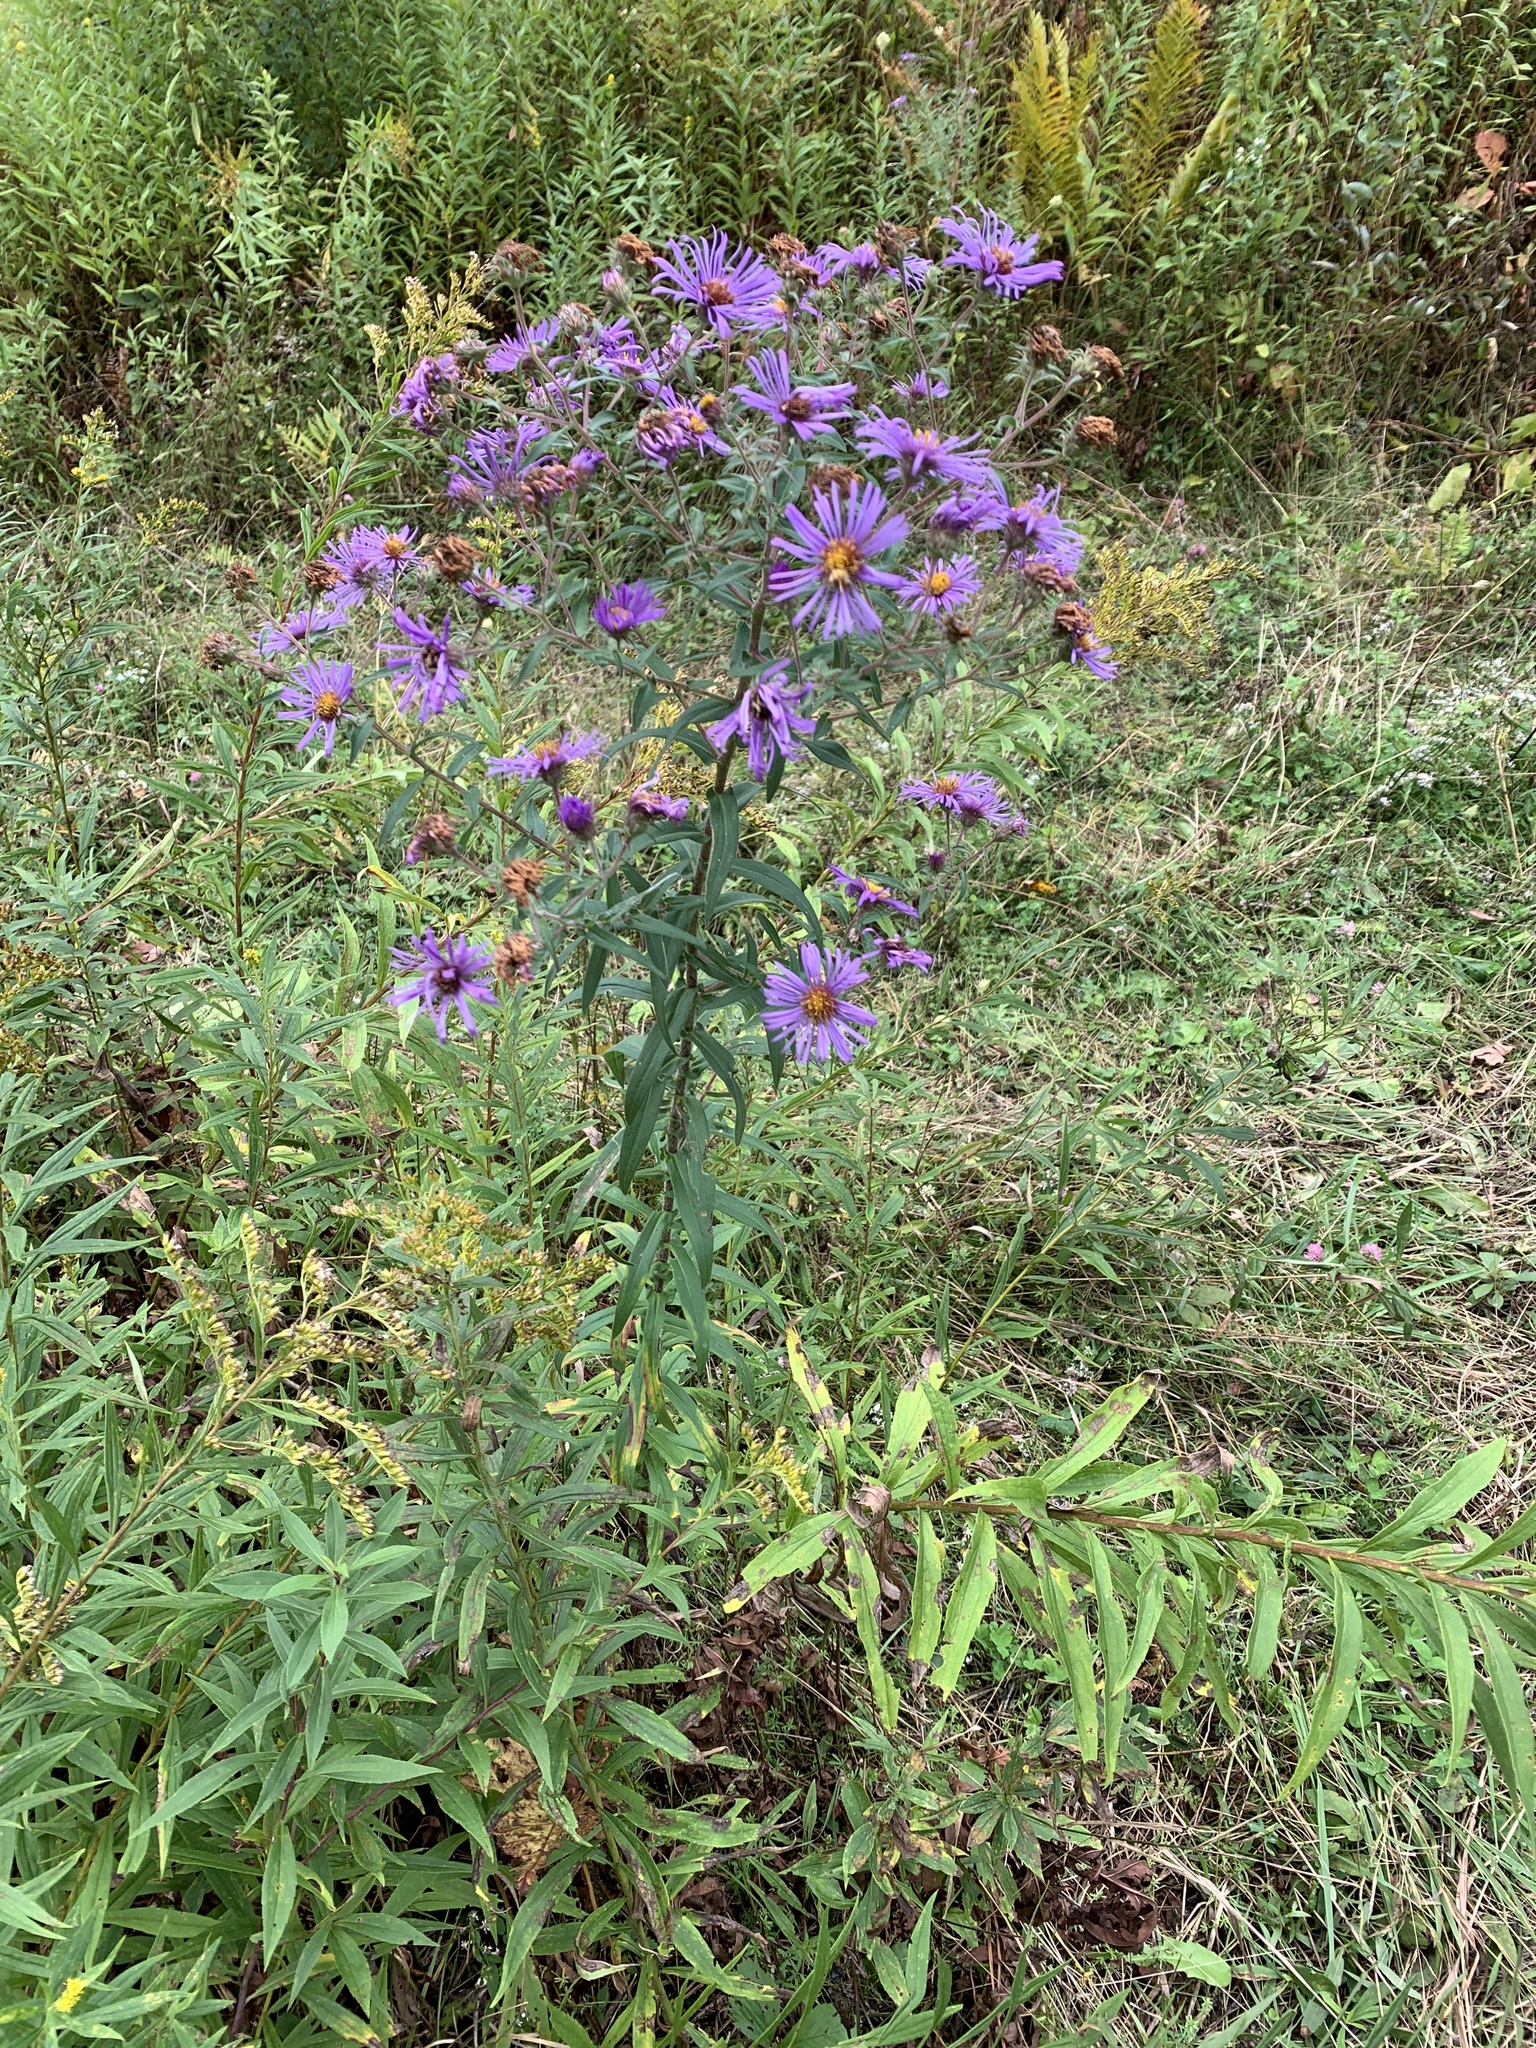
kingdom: Plantae
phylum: Tracheophyta
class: Magnoliopsida
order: Asterales
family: Asteraceae
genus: Symphyotrichum
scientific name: Symphyotrichum novae-angliae
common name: Michaelmas daisy
